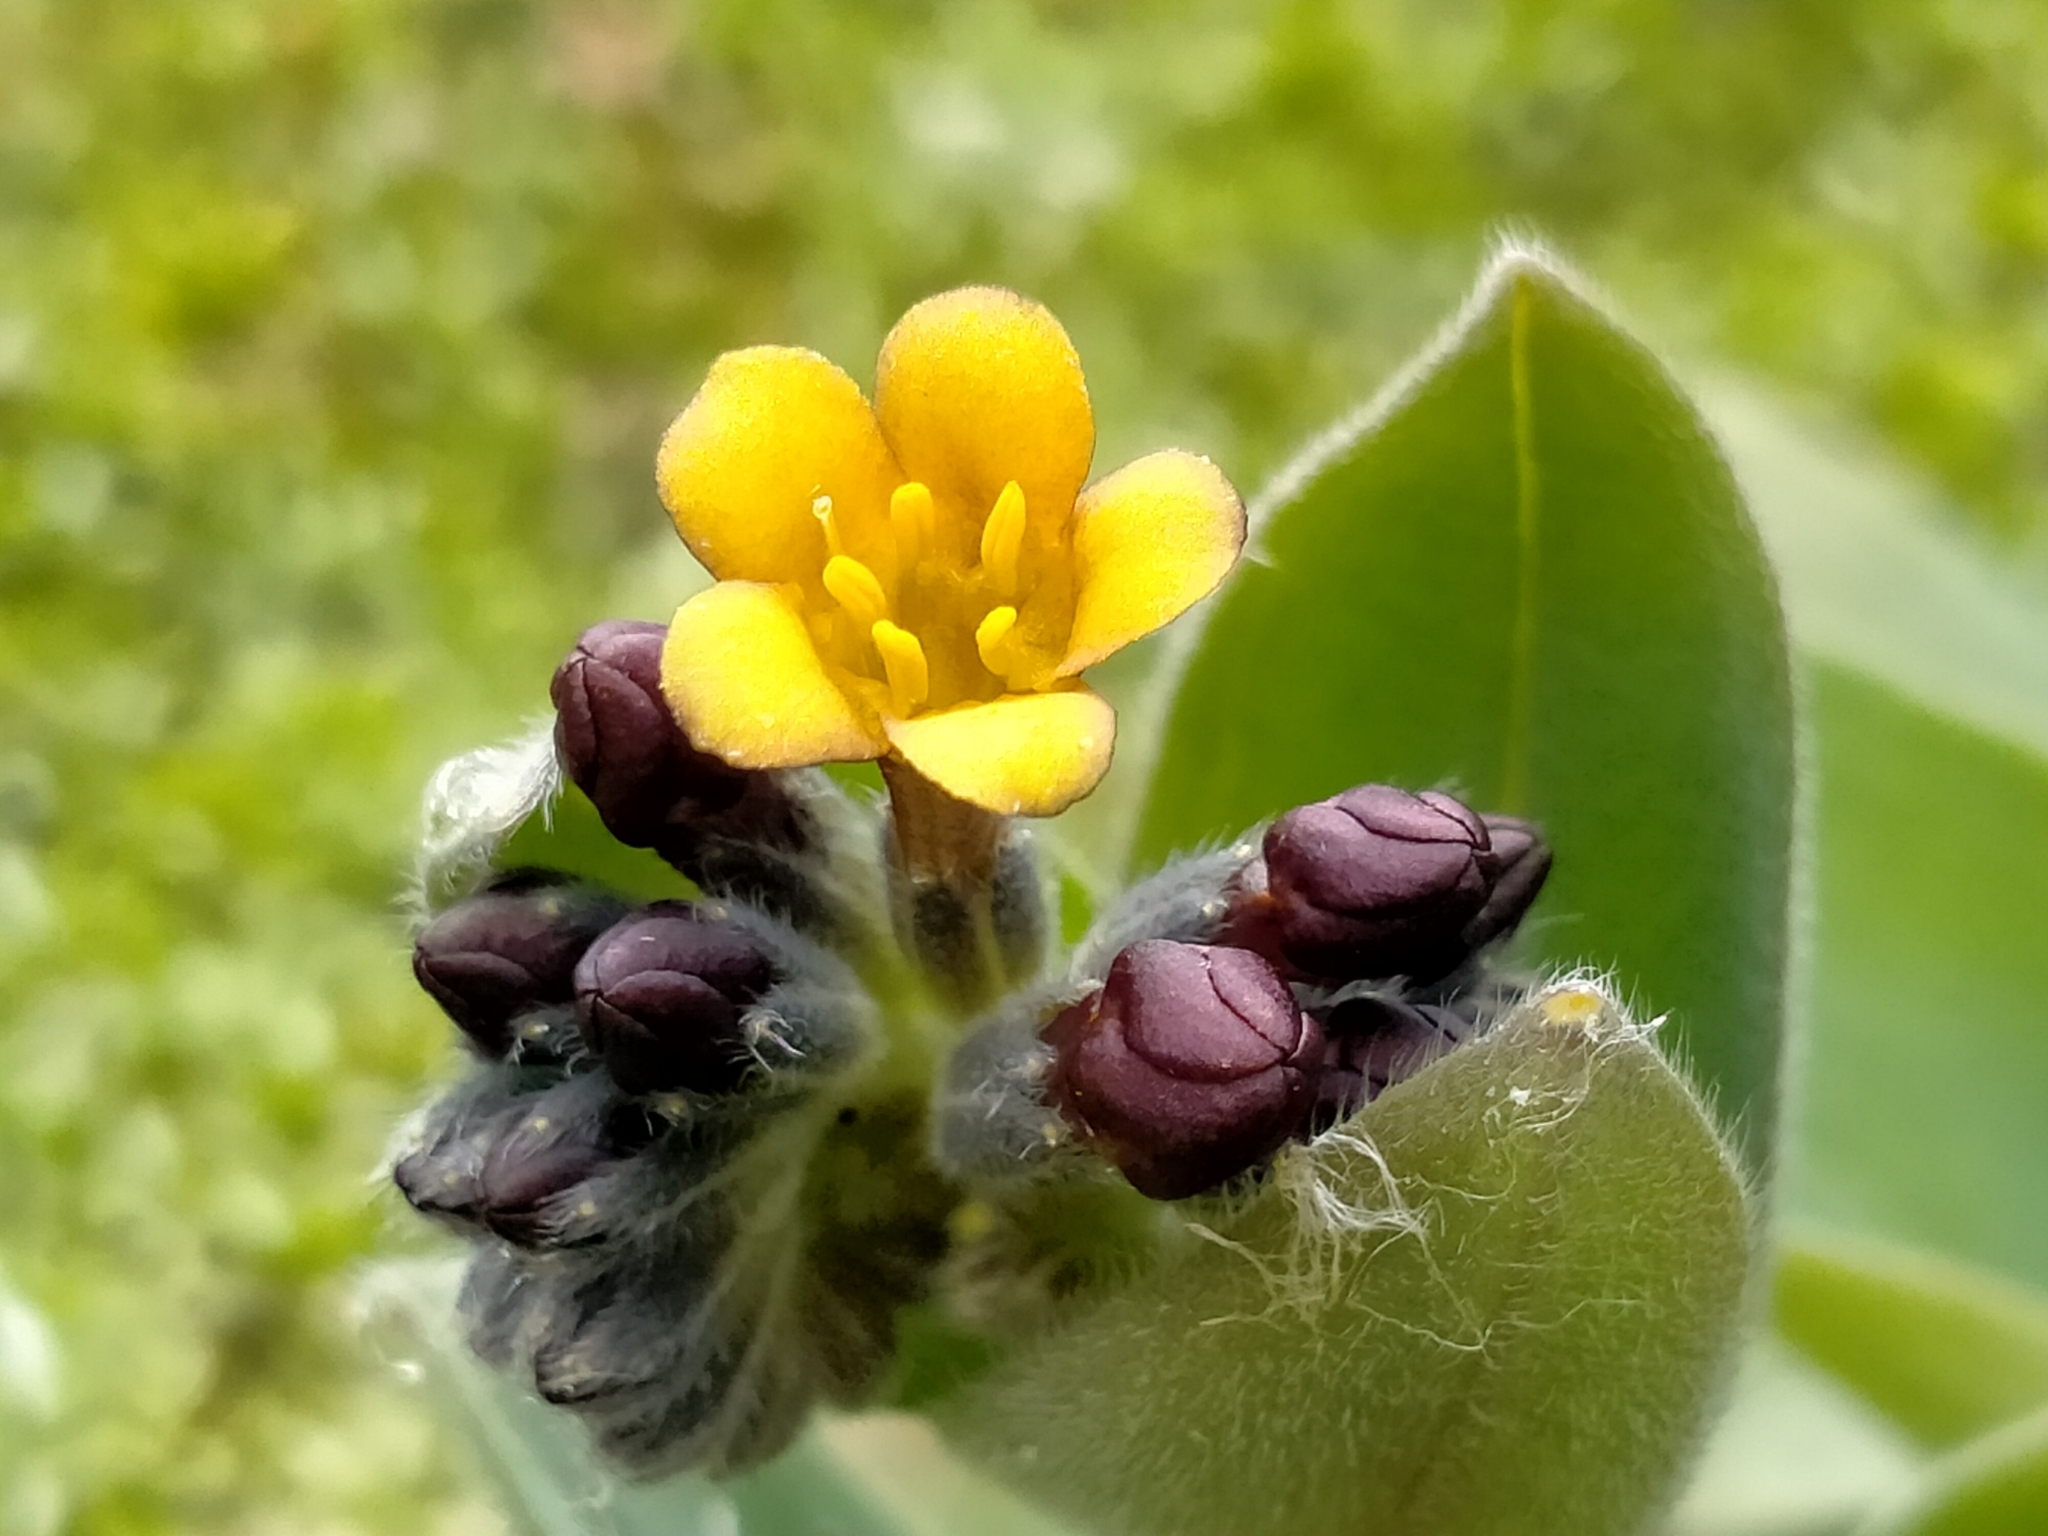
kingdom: Plantae
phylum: Tracheophyta
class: Magnoliopsida
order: Boraginales
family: Boraginaceae
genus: Myosotis
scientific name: Myosotis macrantha
